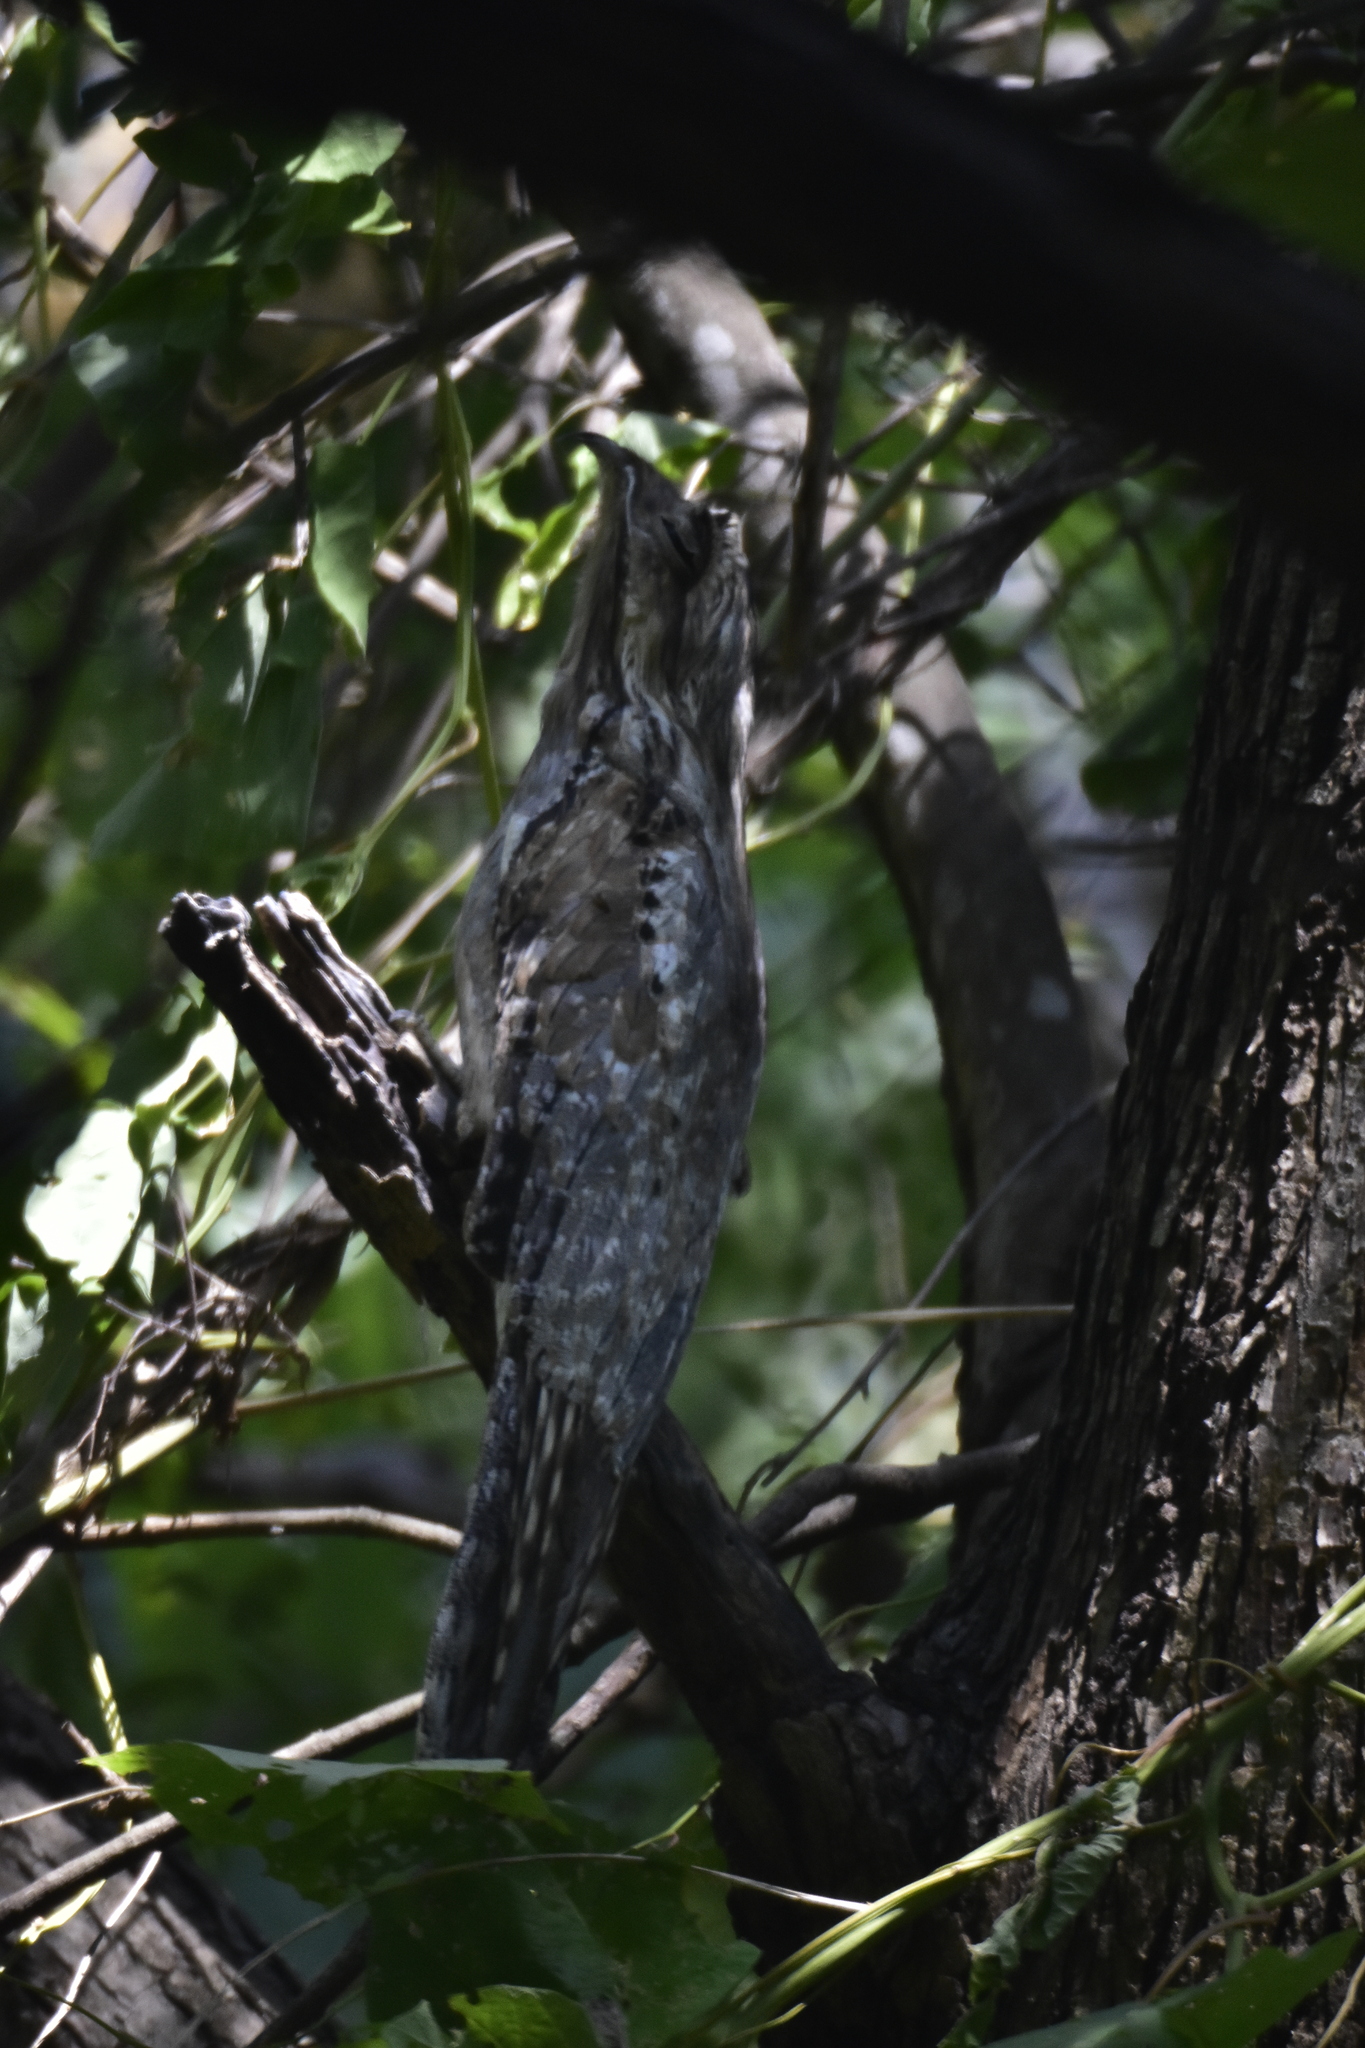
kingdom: Animalia
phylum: Chordata
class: Aves
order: Nyctibiiformes
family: Nyctibiidae
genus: Nyctibius
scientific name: Nyctibius jamaicensis
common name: Northern potoo
